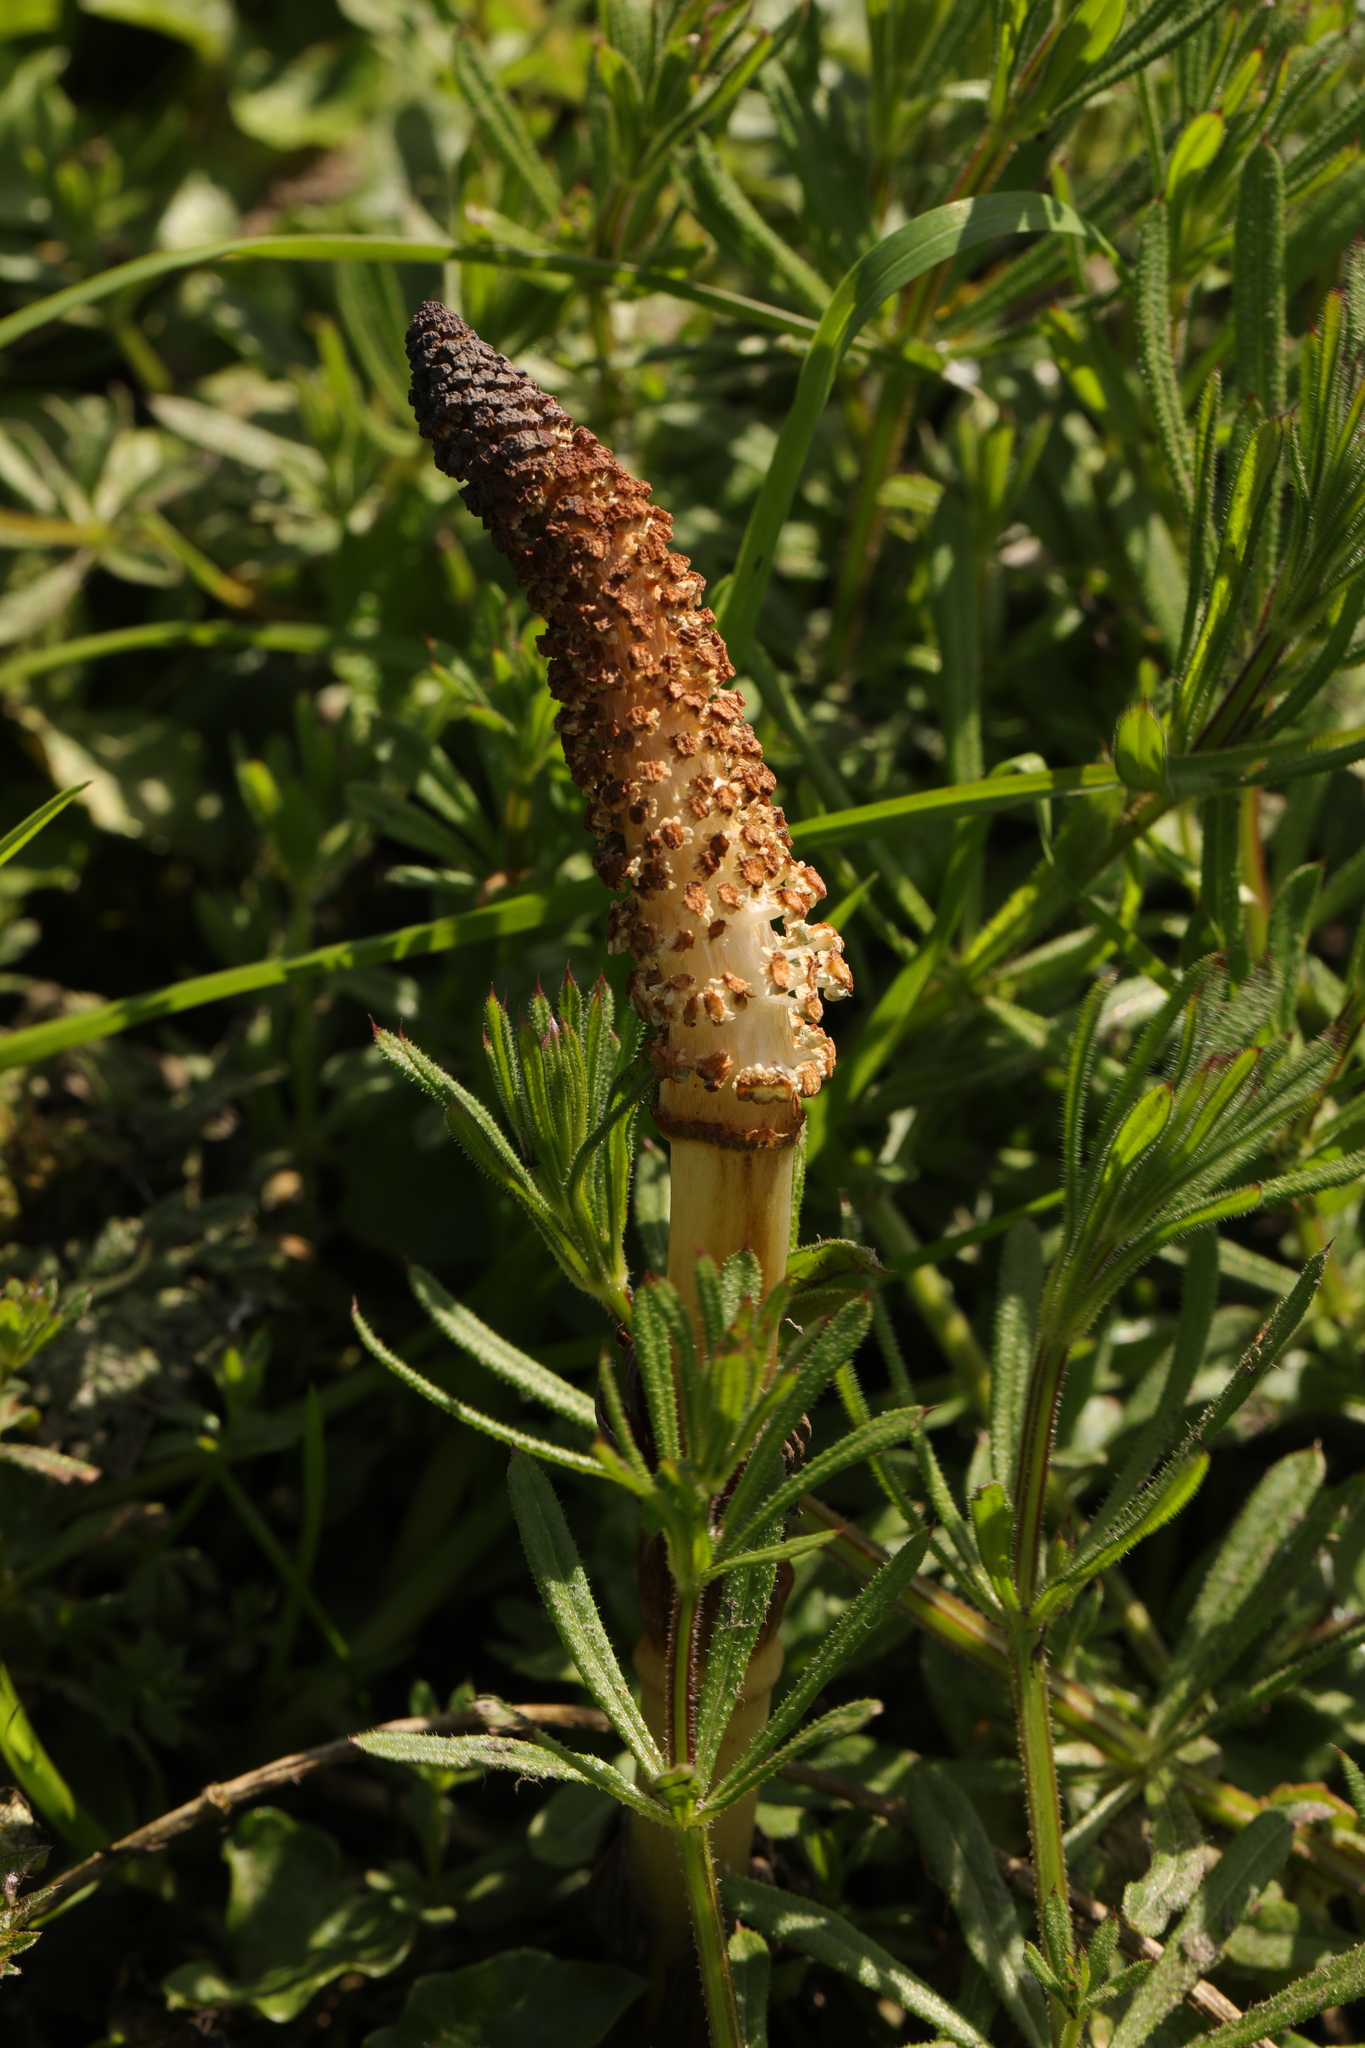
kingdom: Plantae
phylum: Tracheophyta
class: Polypodiopsida
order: Equisetales
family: Equisetaceae
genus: Equisetum
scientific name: Equisetum telmateia
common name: Great horsetail
